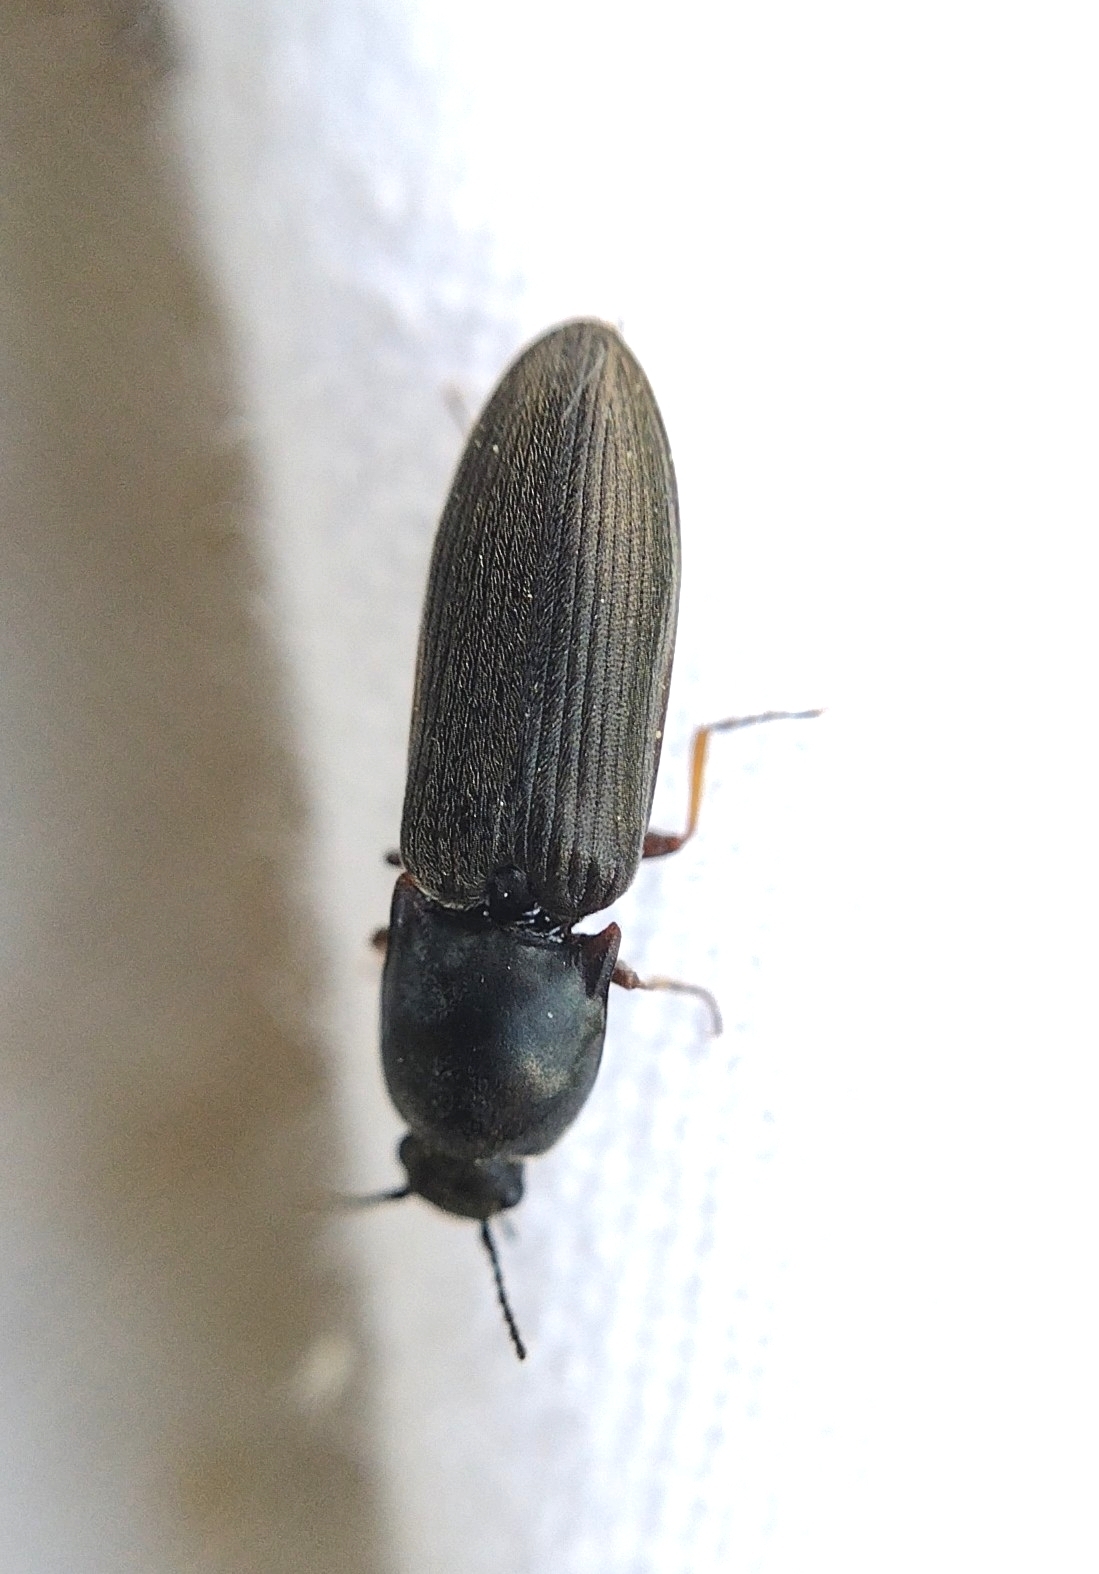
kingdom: Animalia
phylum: Arthropoda
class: Insecta
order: Coleoptera
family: Elateridae
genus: Aplotarsus
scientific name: Aplotarsus incanus
